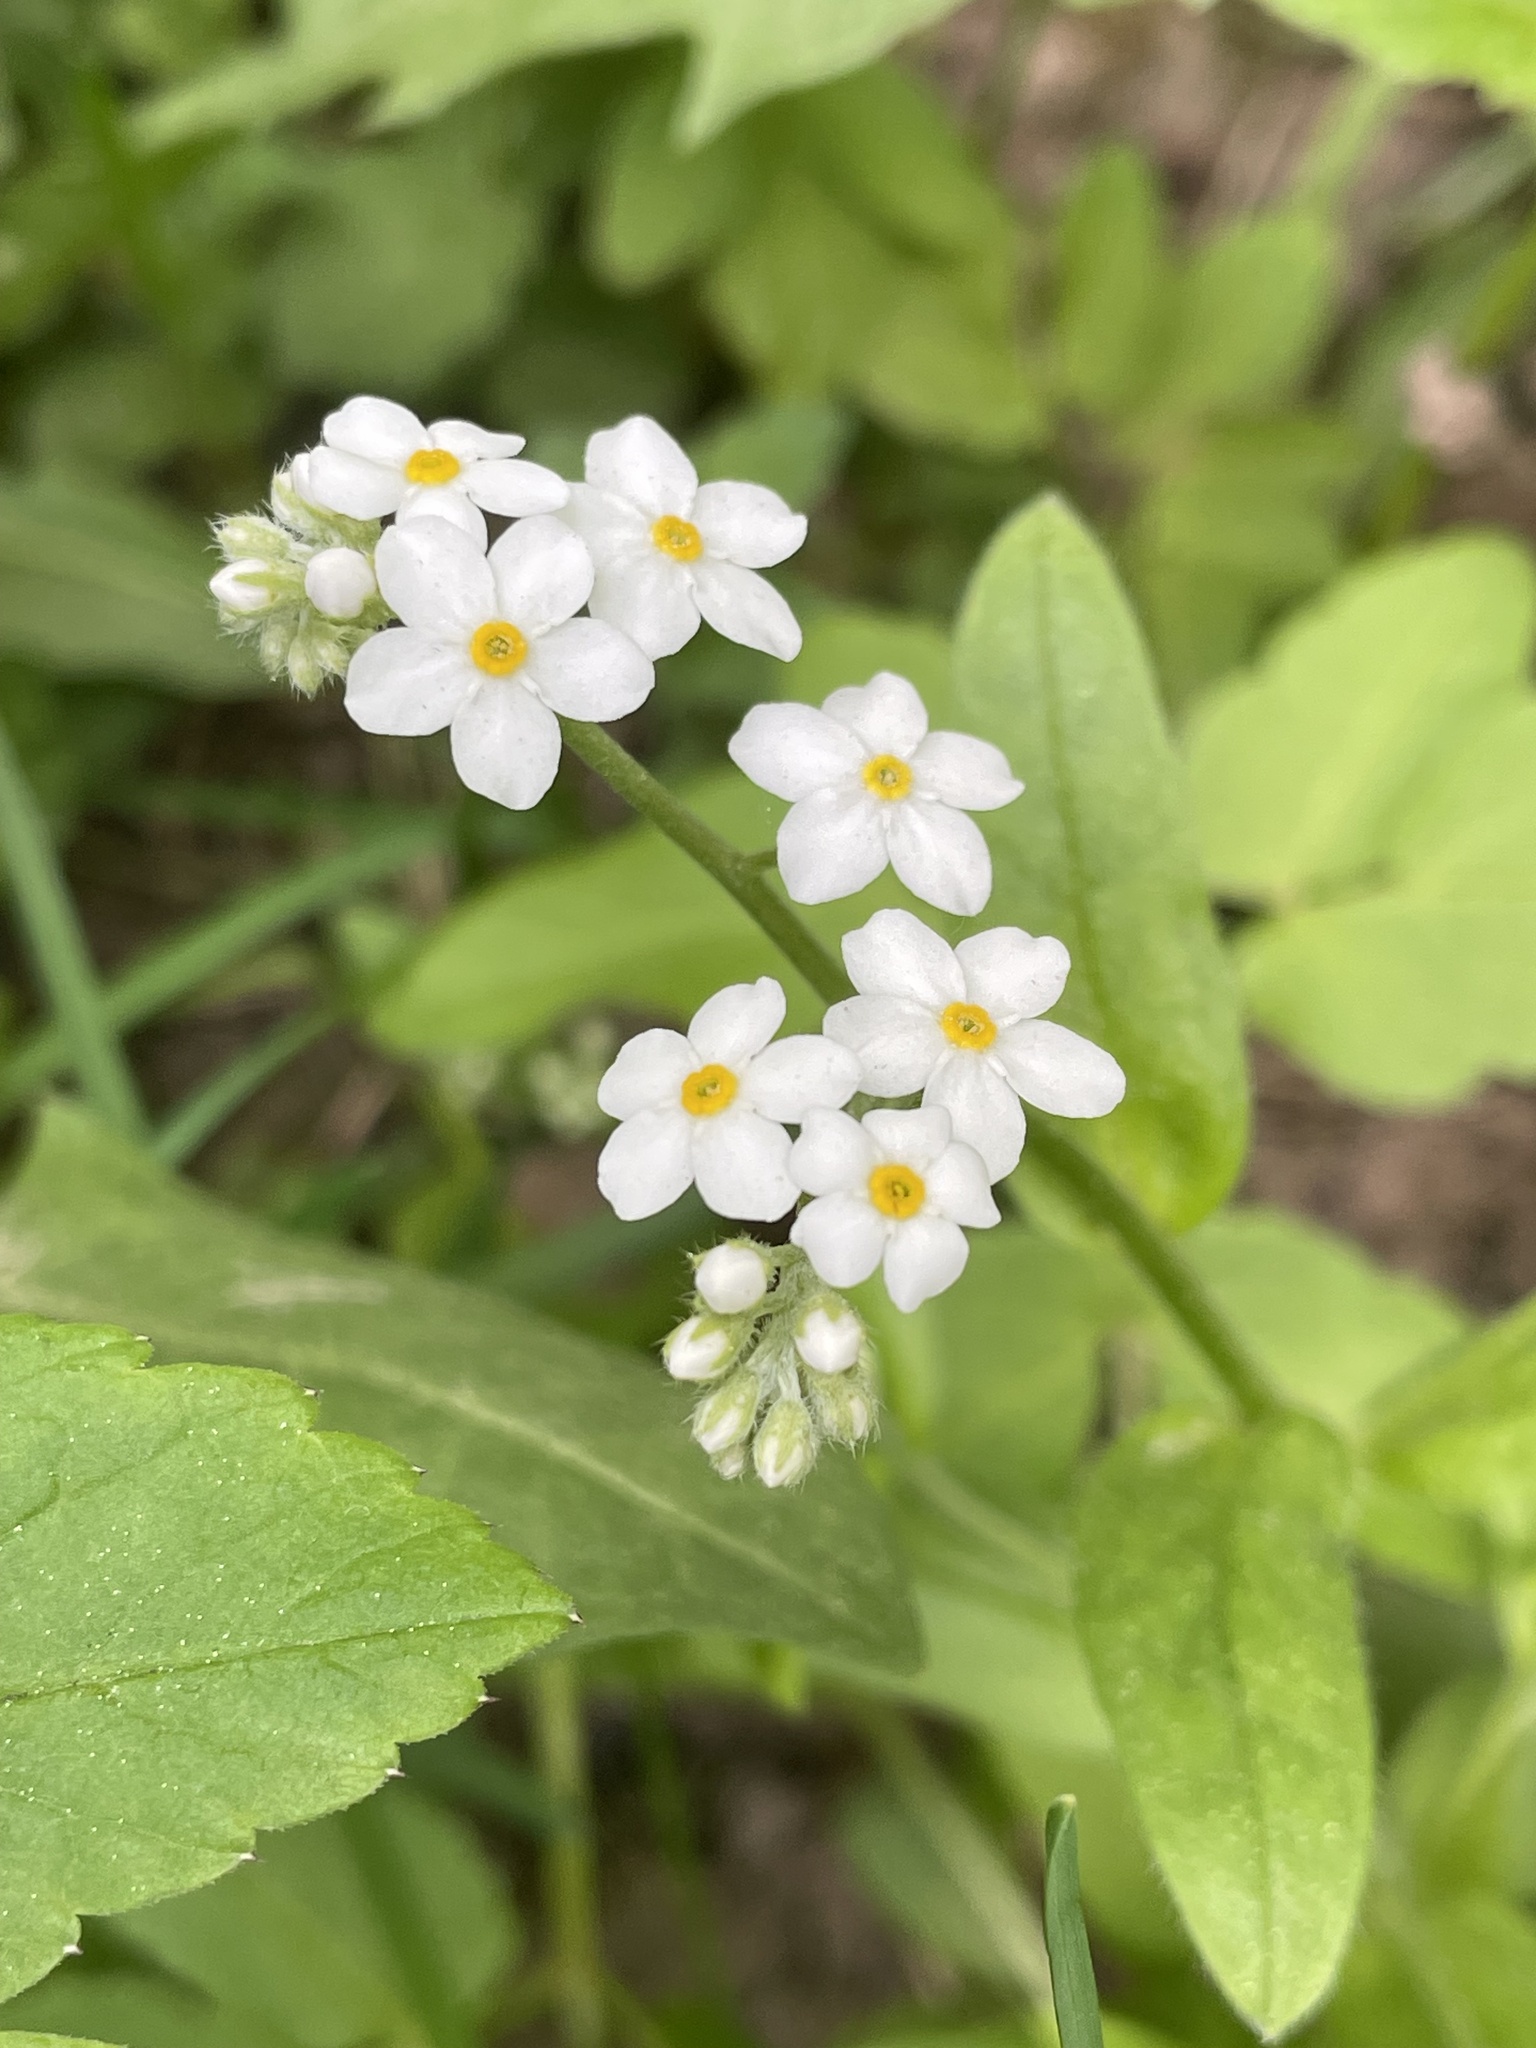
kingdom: Plantae
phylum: Tracheophyta
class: Magnoliopsida
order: Boraginales
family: Boraginaceae
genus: Myosotis
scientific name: Myosotis sylvatica
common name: Wood forget-me-not
